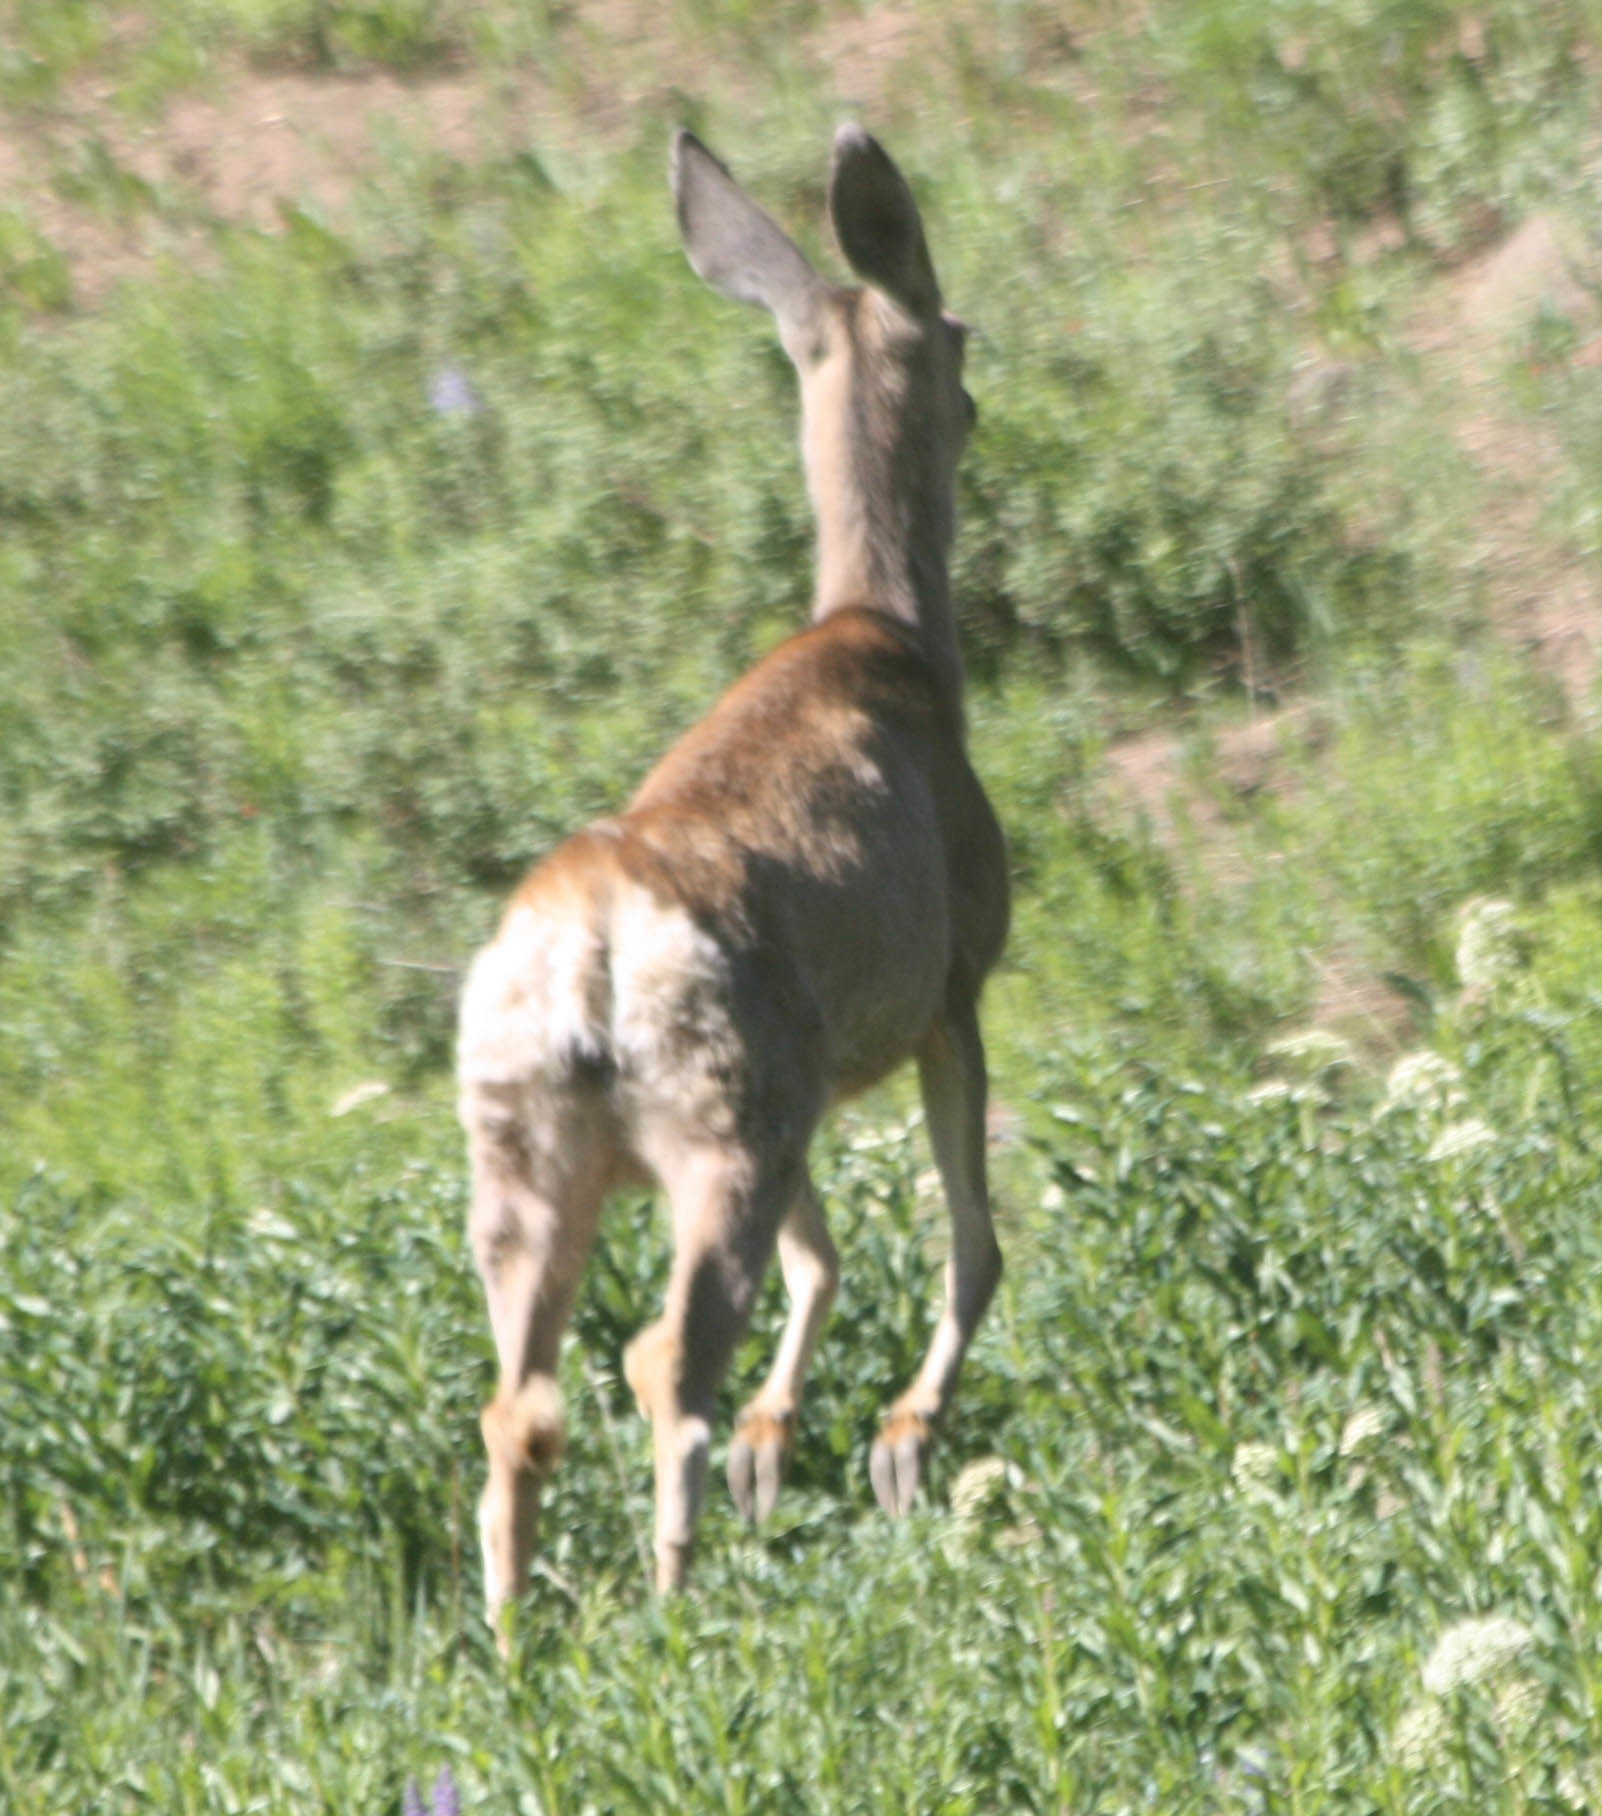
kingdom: Animalia
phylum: Chordata
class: Mammalia
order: Artiodactyla
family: Cervidae
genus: Odocoileus
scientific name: Odocoileus hemionus
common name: Mule deer
